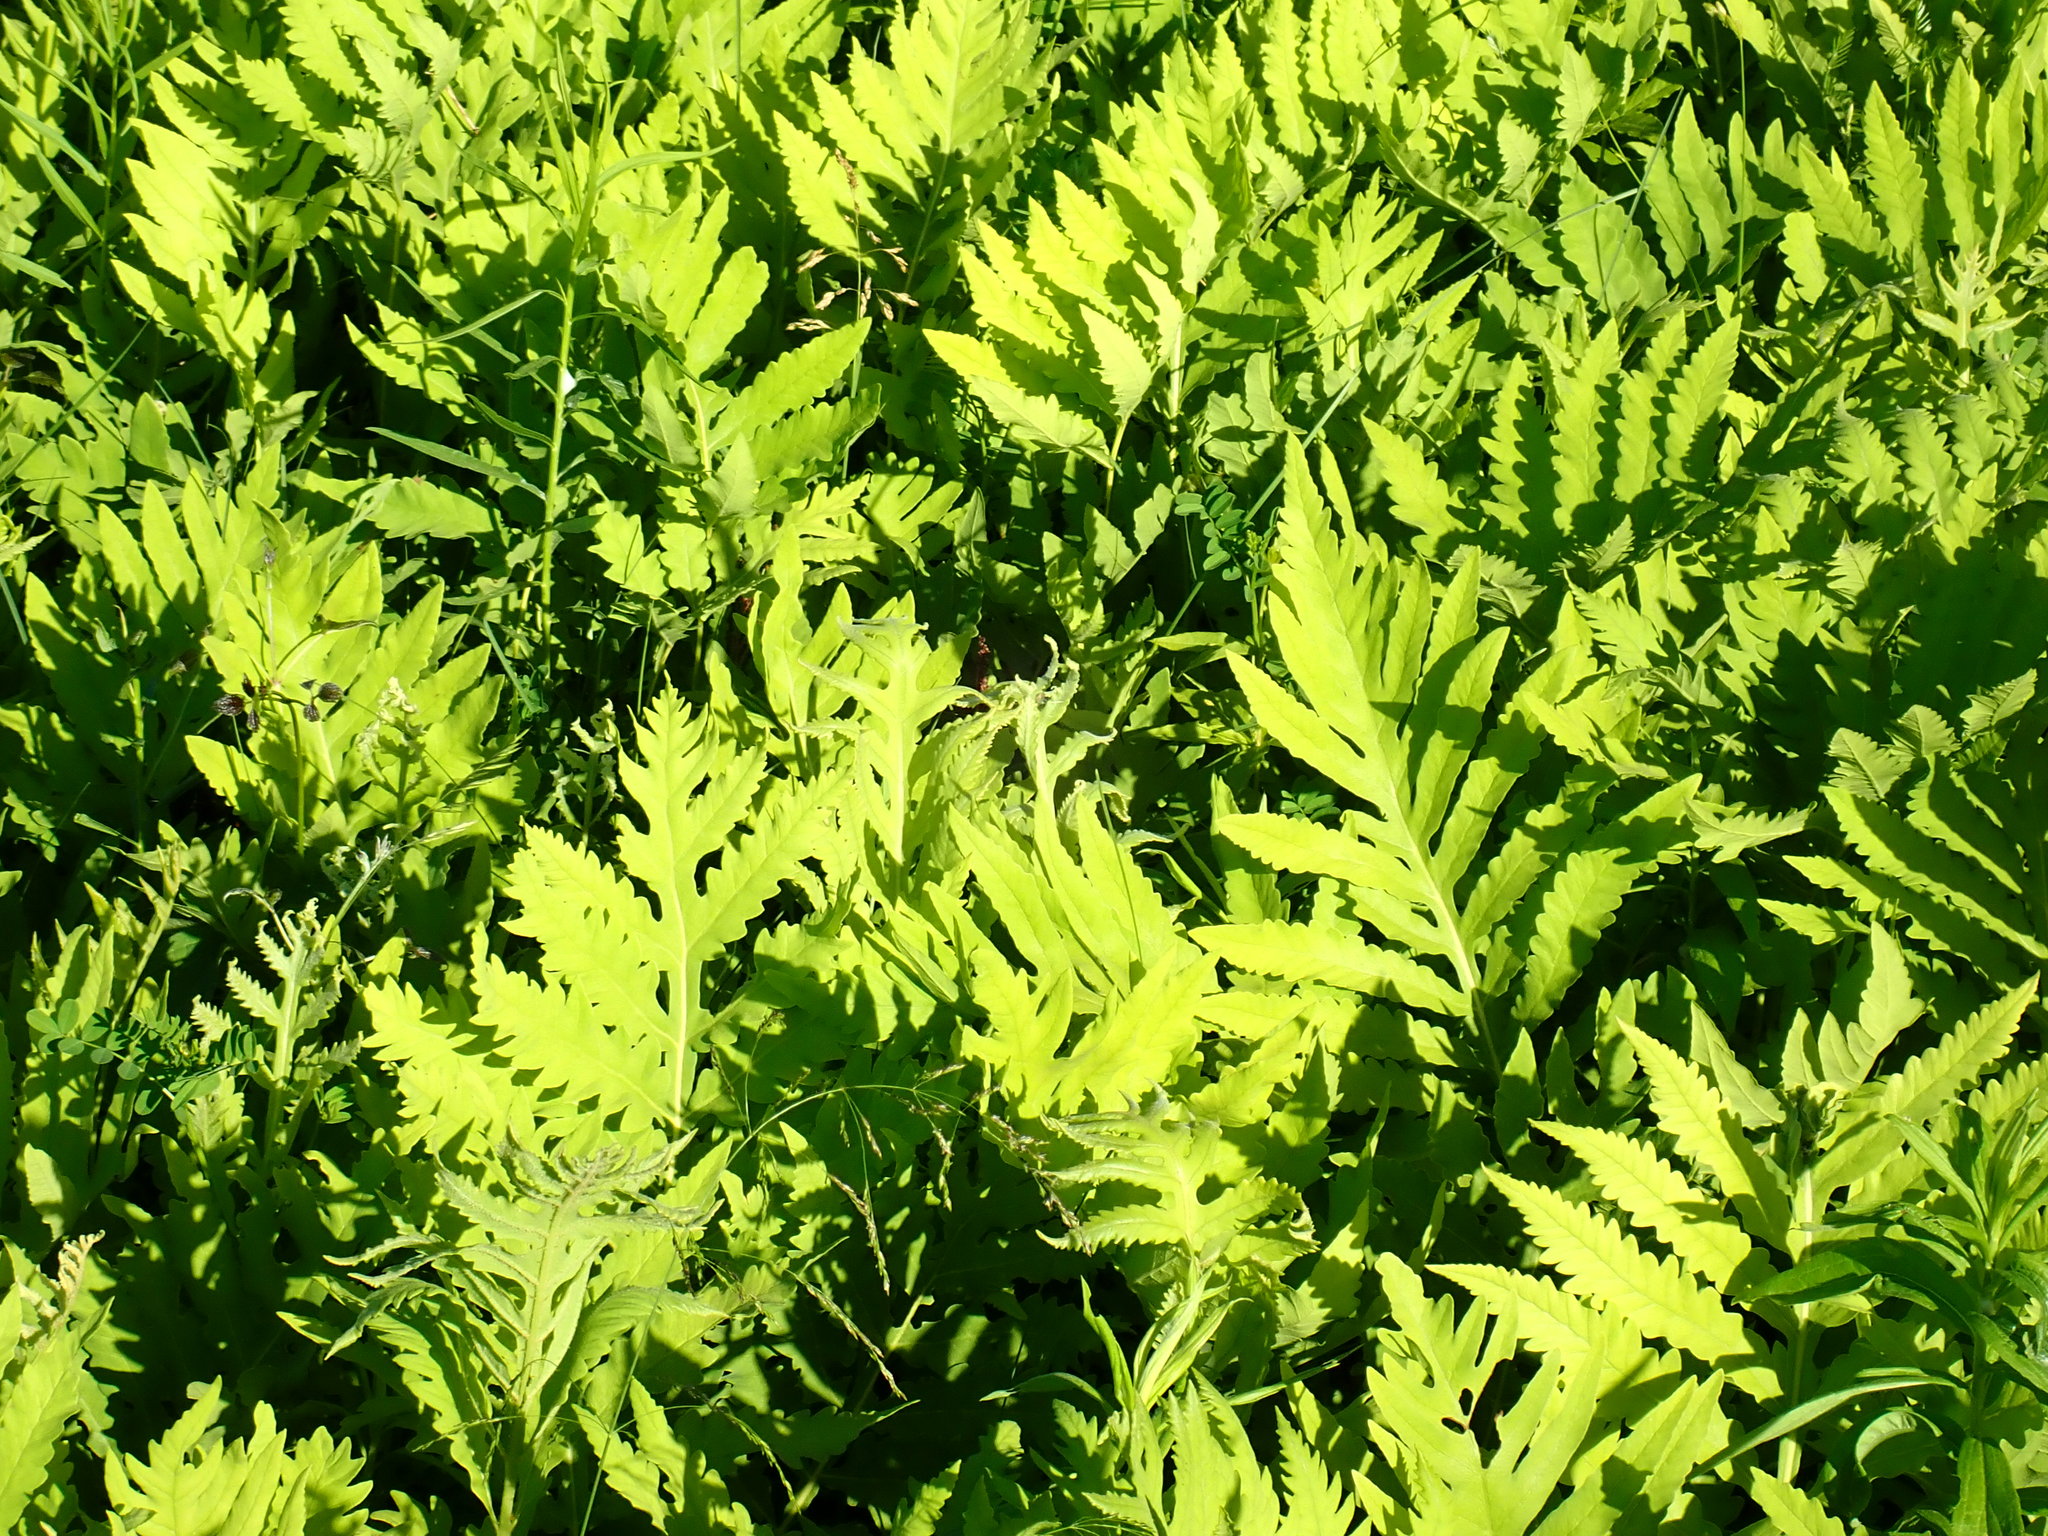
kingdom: Plantae
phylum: Tracheophyta
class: Polypodiopsida
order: Polypodiales
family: Onocleaceae
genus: Onoclea
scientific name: Onoclea sensibilis
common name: Sensitive fern
